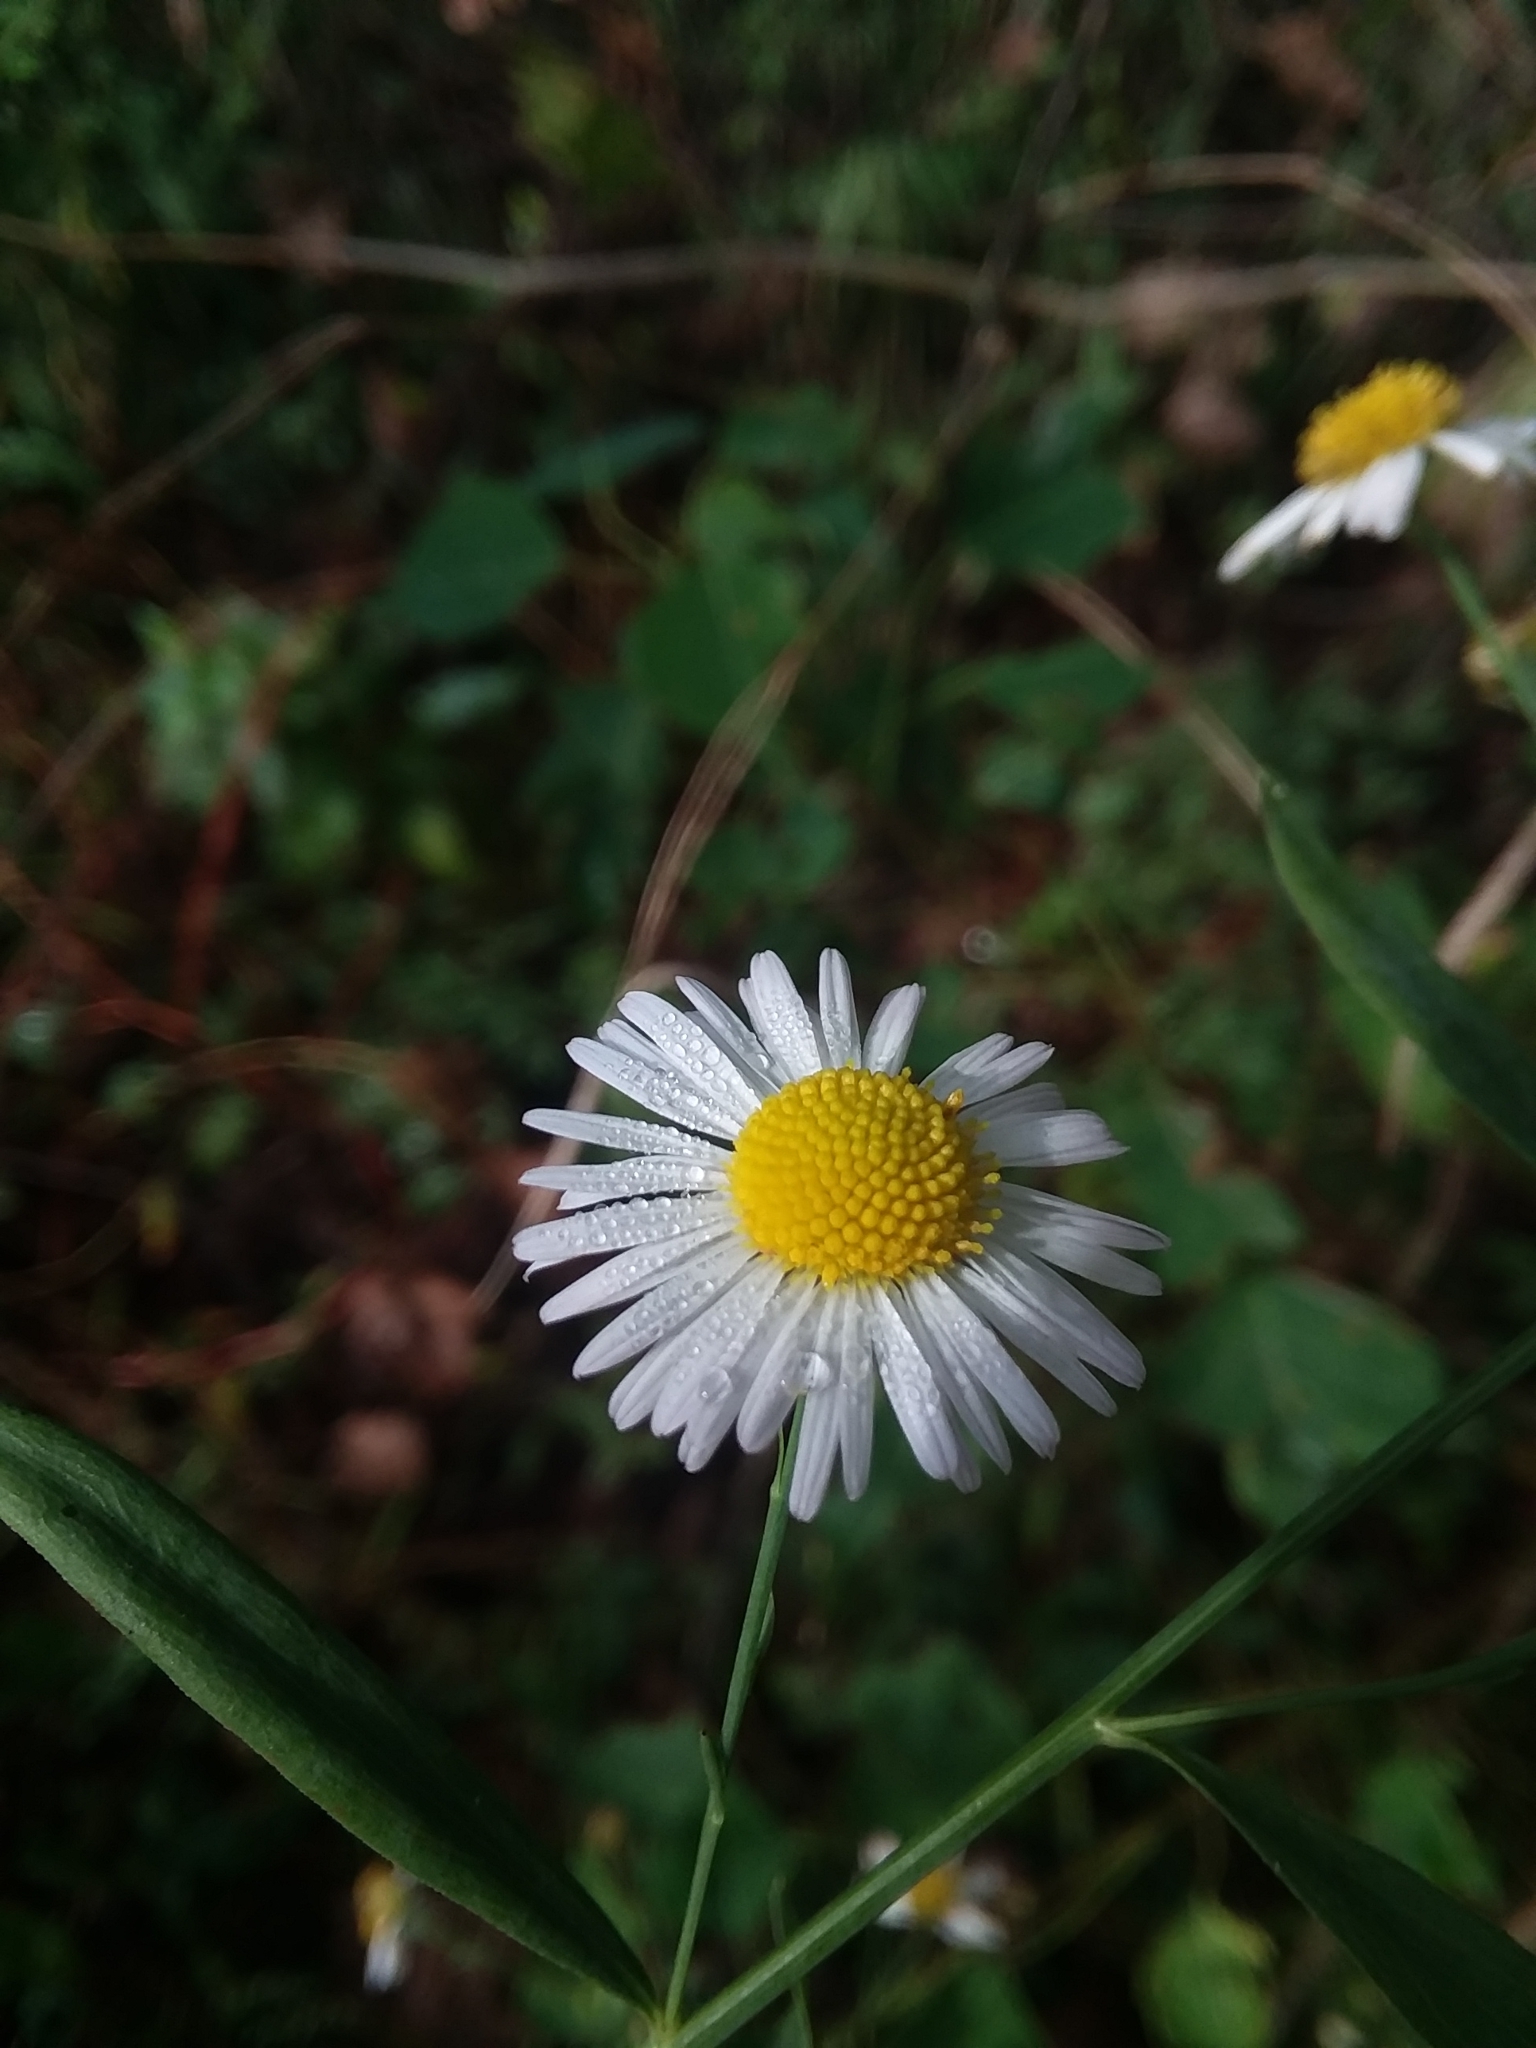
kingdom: Plantae
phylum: Tracheophyta
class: Magnoliopsida
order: Asterales
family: Asteraceae
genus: Boltonia
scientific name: Boltonia asteroides
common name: False chamomile
